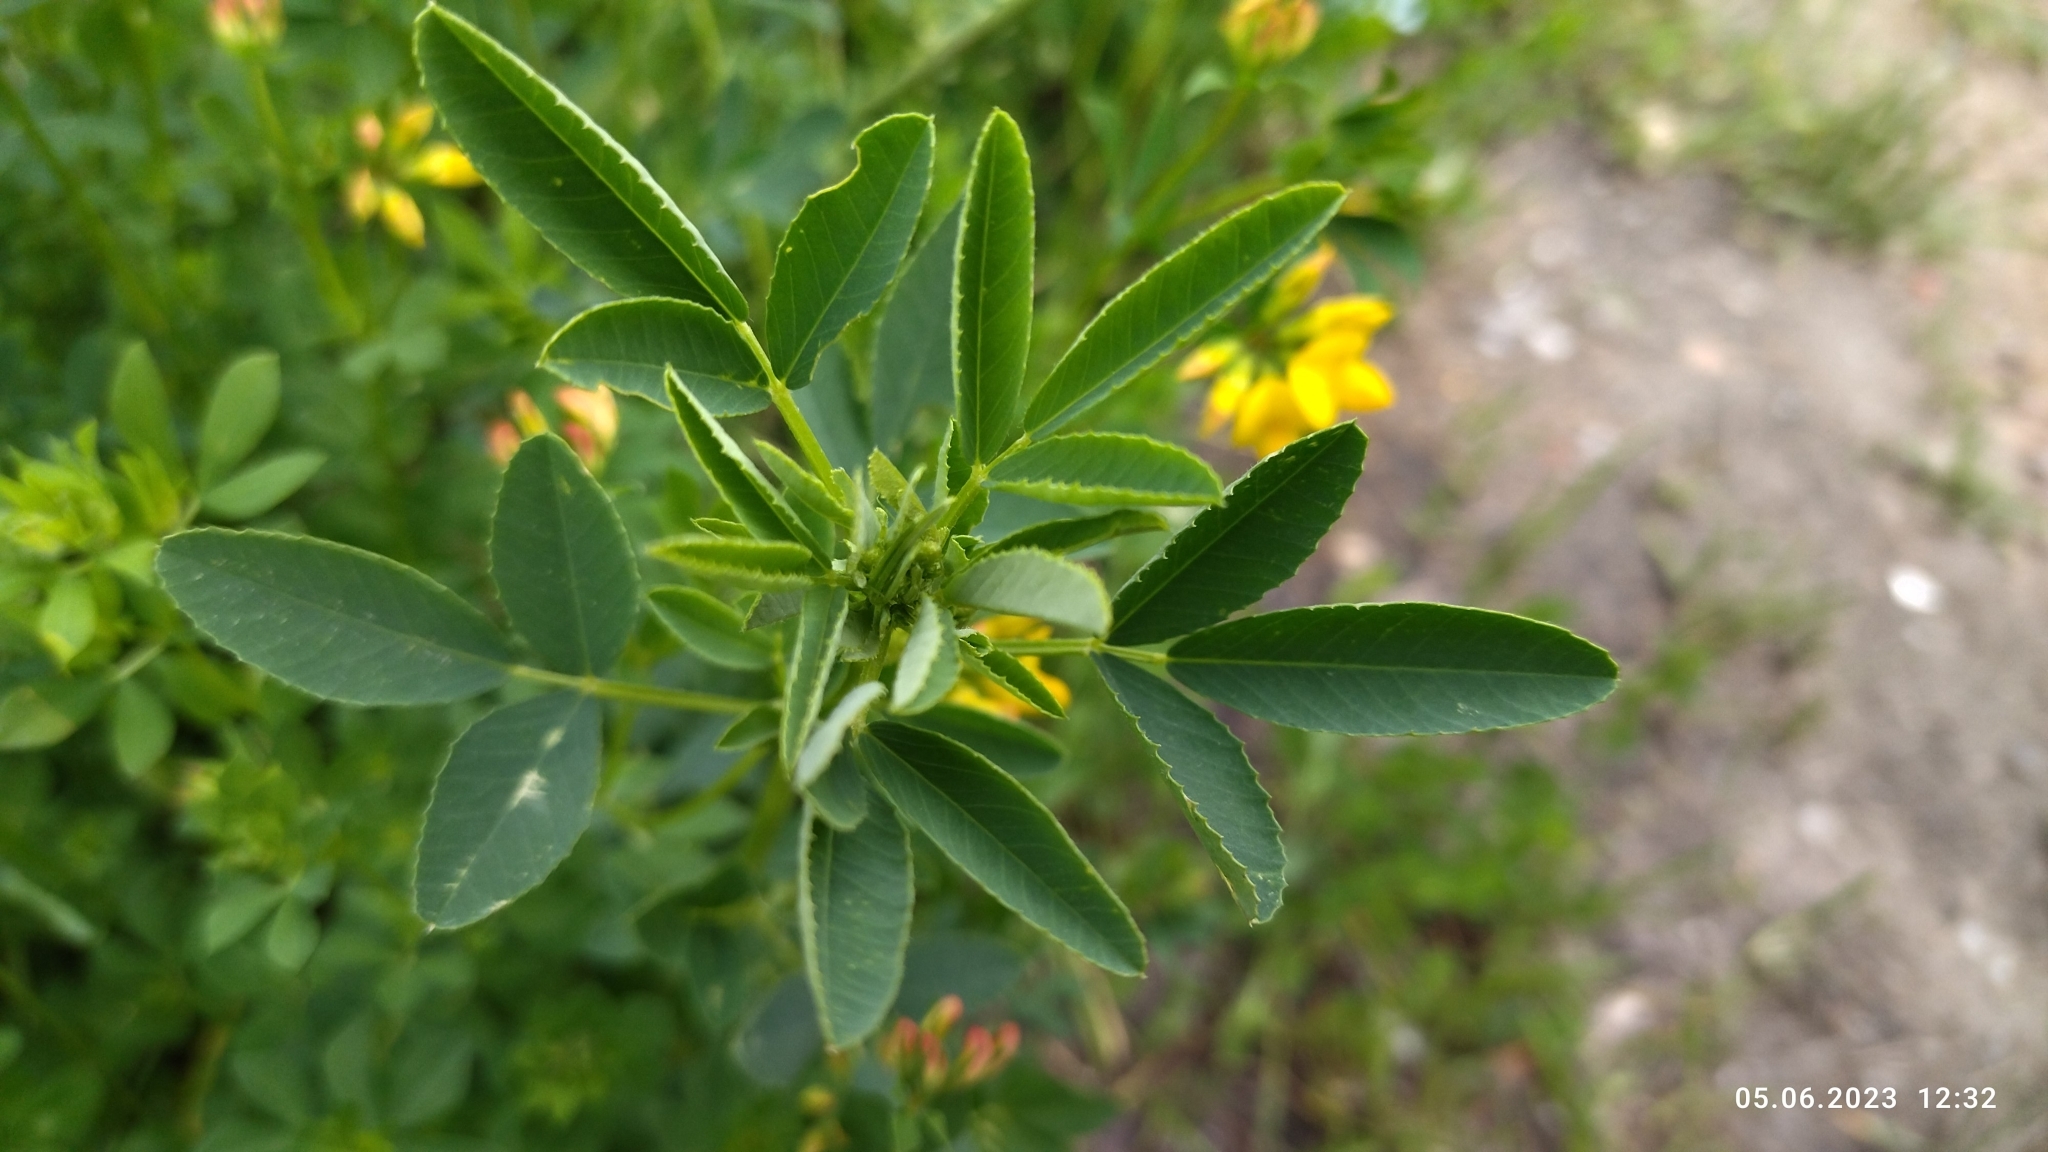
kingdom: Plantae
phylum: Tracheophyta
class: Magnoliopsida
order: Fabales
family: Fabaceae
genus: Medicago
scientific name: Medicago sativa
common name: Alfalfa
